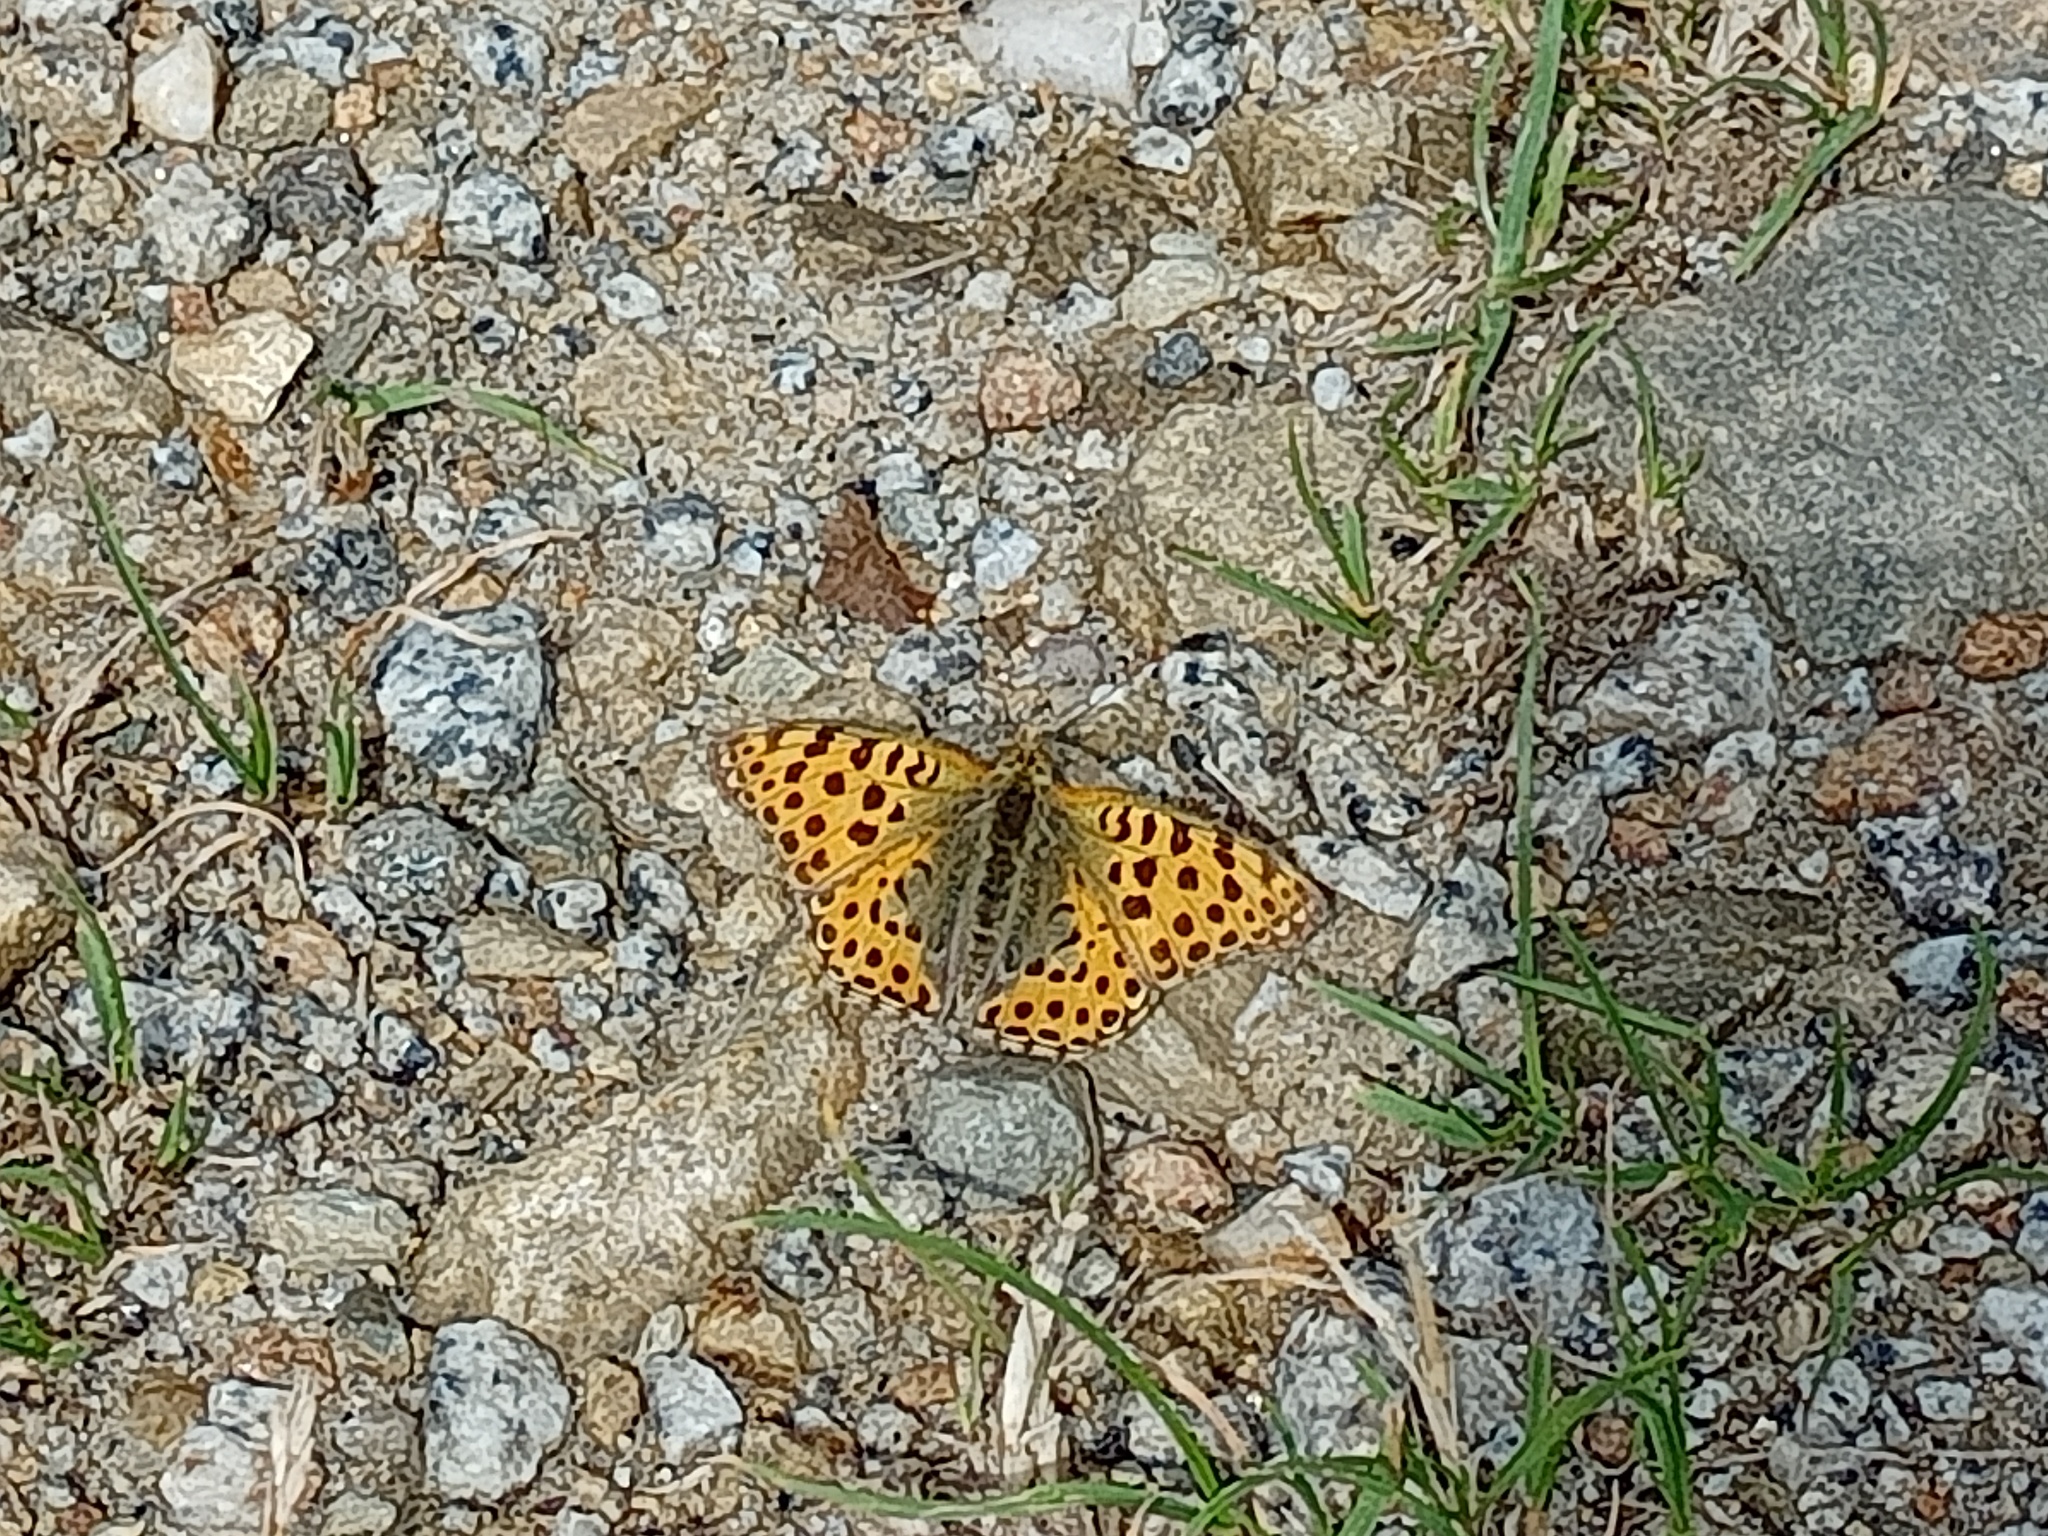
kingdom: Animalia
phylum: Arthropoda
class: Insecta
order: Lepidoptera
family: Nymphalidae
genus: Issoria
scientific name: Issoria lathonia
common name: Queen of spain fritillary
